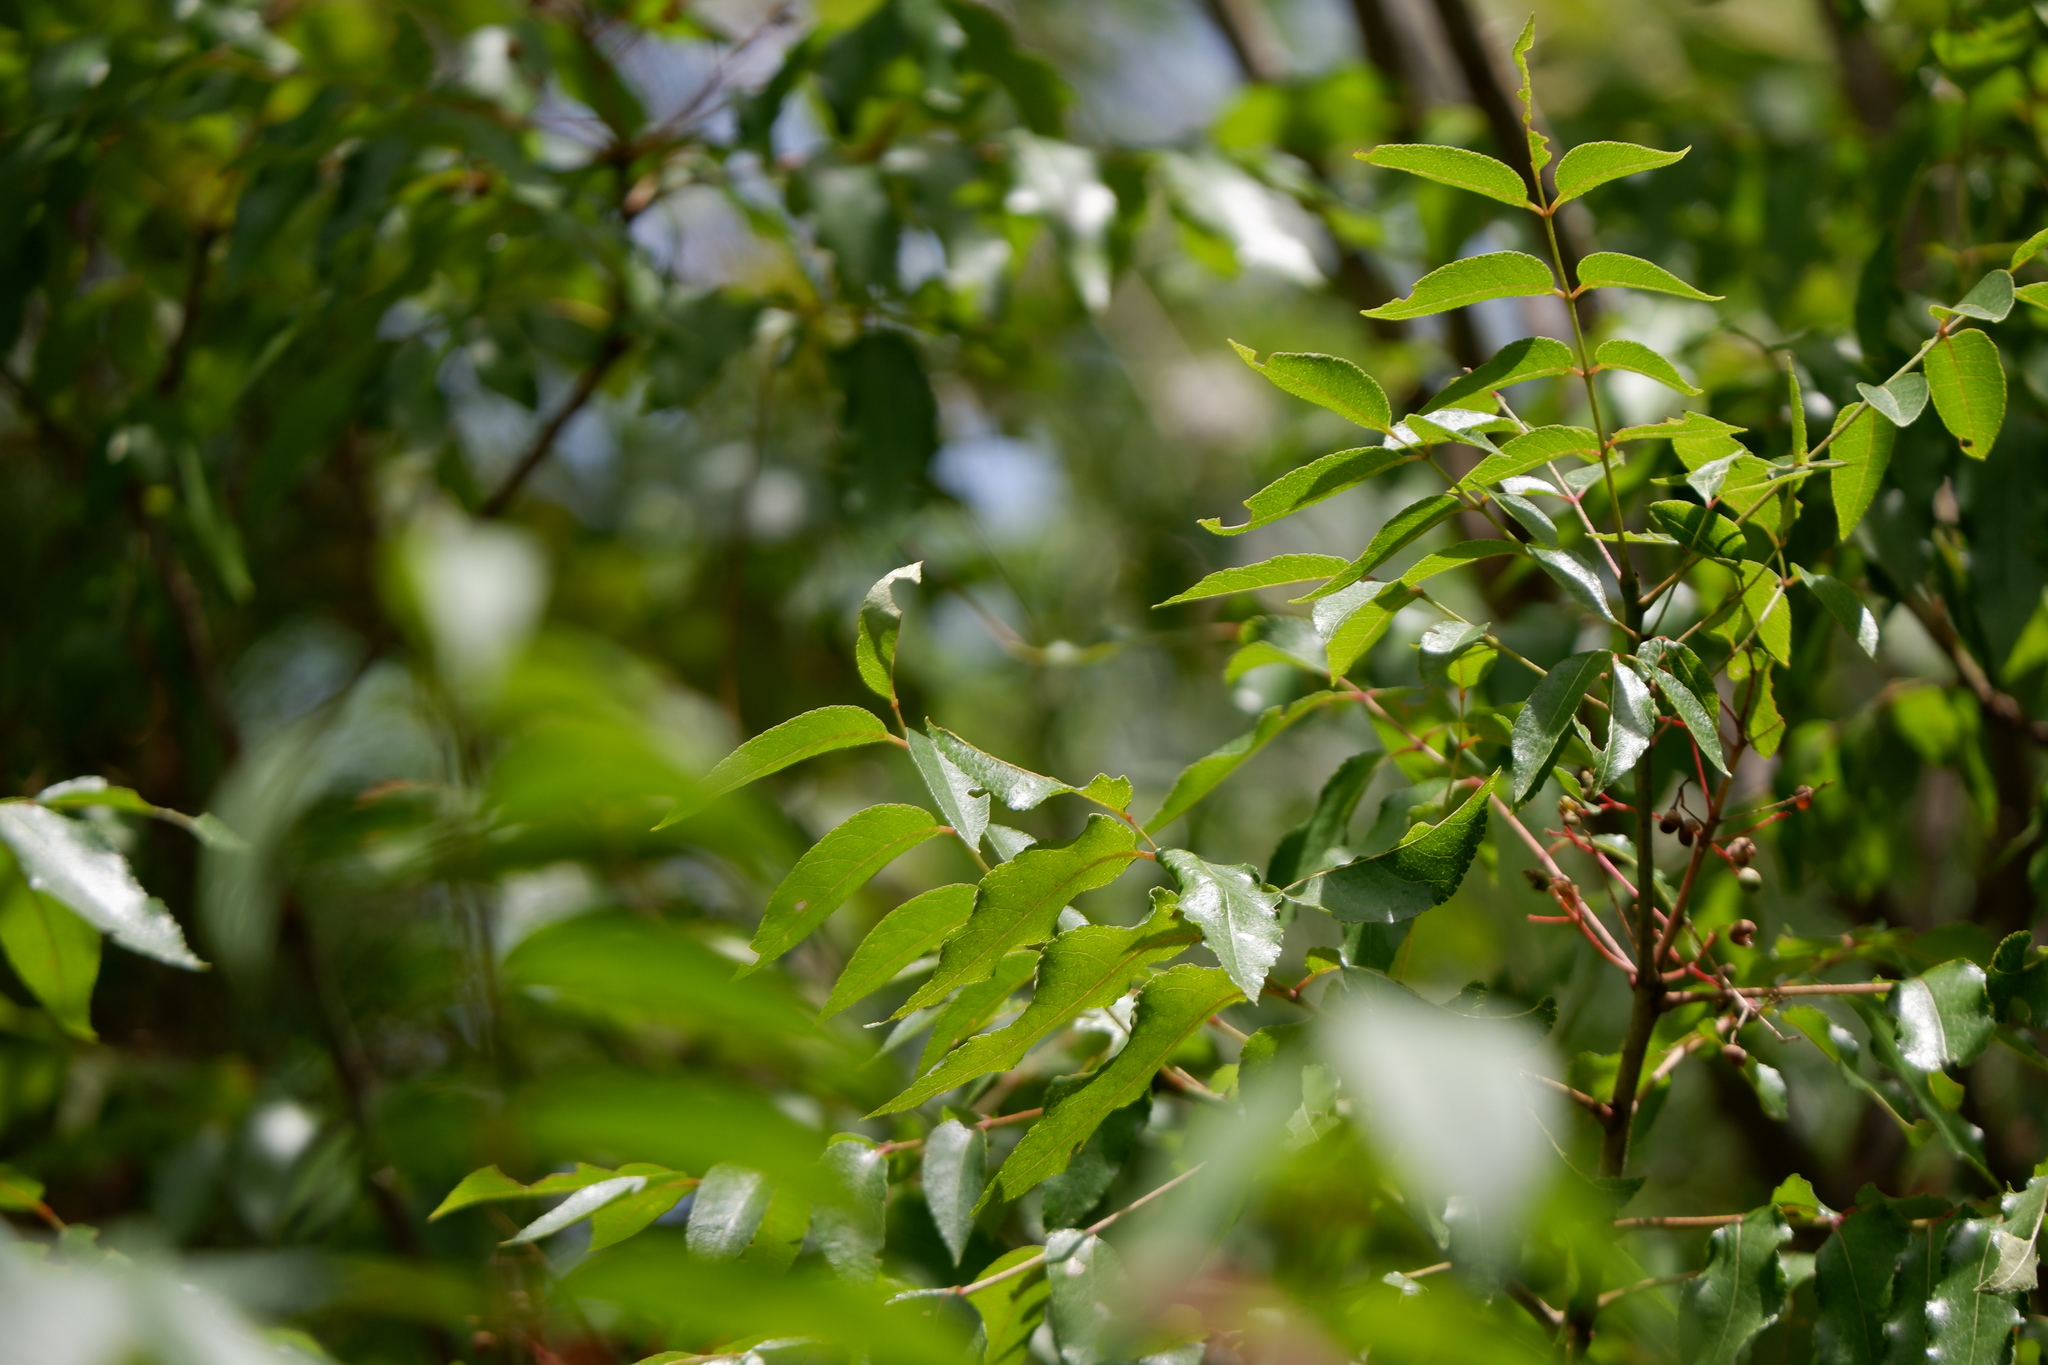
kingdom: Plantae
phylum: Tracheophyta
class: Magnoliopsida
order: Sapindales
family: Rutaceae
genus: Zanthoxylum
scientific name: Zanthoxylum clava-herculis
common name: Hercules'-club
